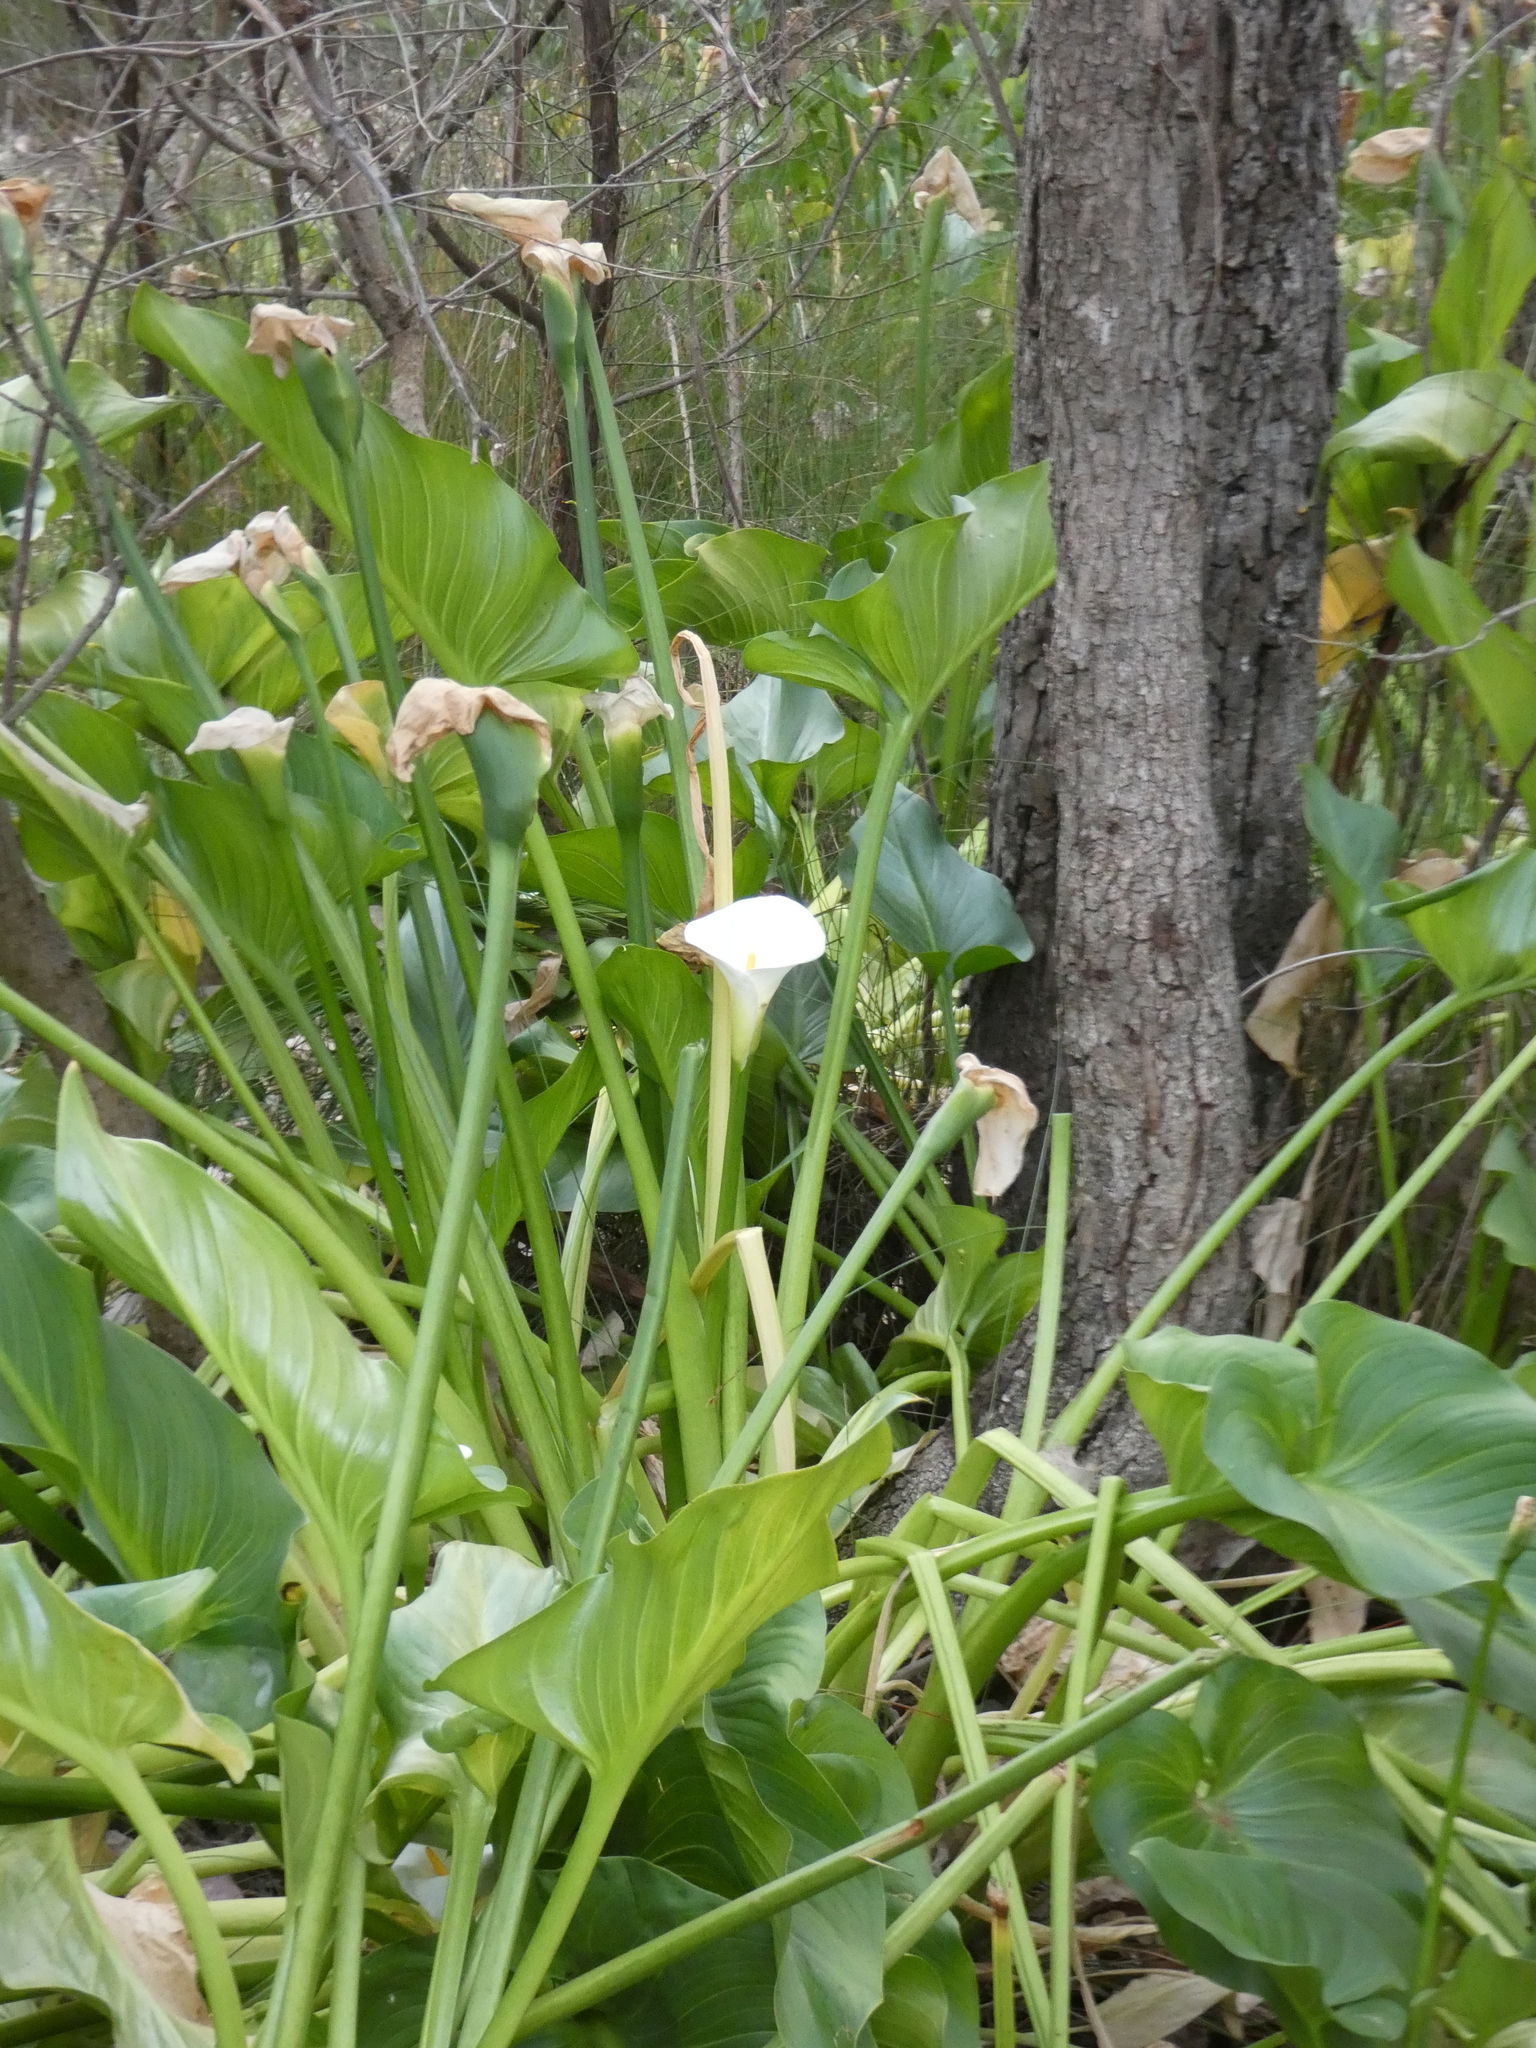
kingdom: Plantae
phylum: Tracheophyta
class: Liliopsida
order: Alismatales
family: Araceae
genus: Zantedeschia
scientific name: Zantedeschia aethiopica
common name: Altar-lily
